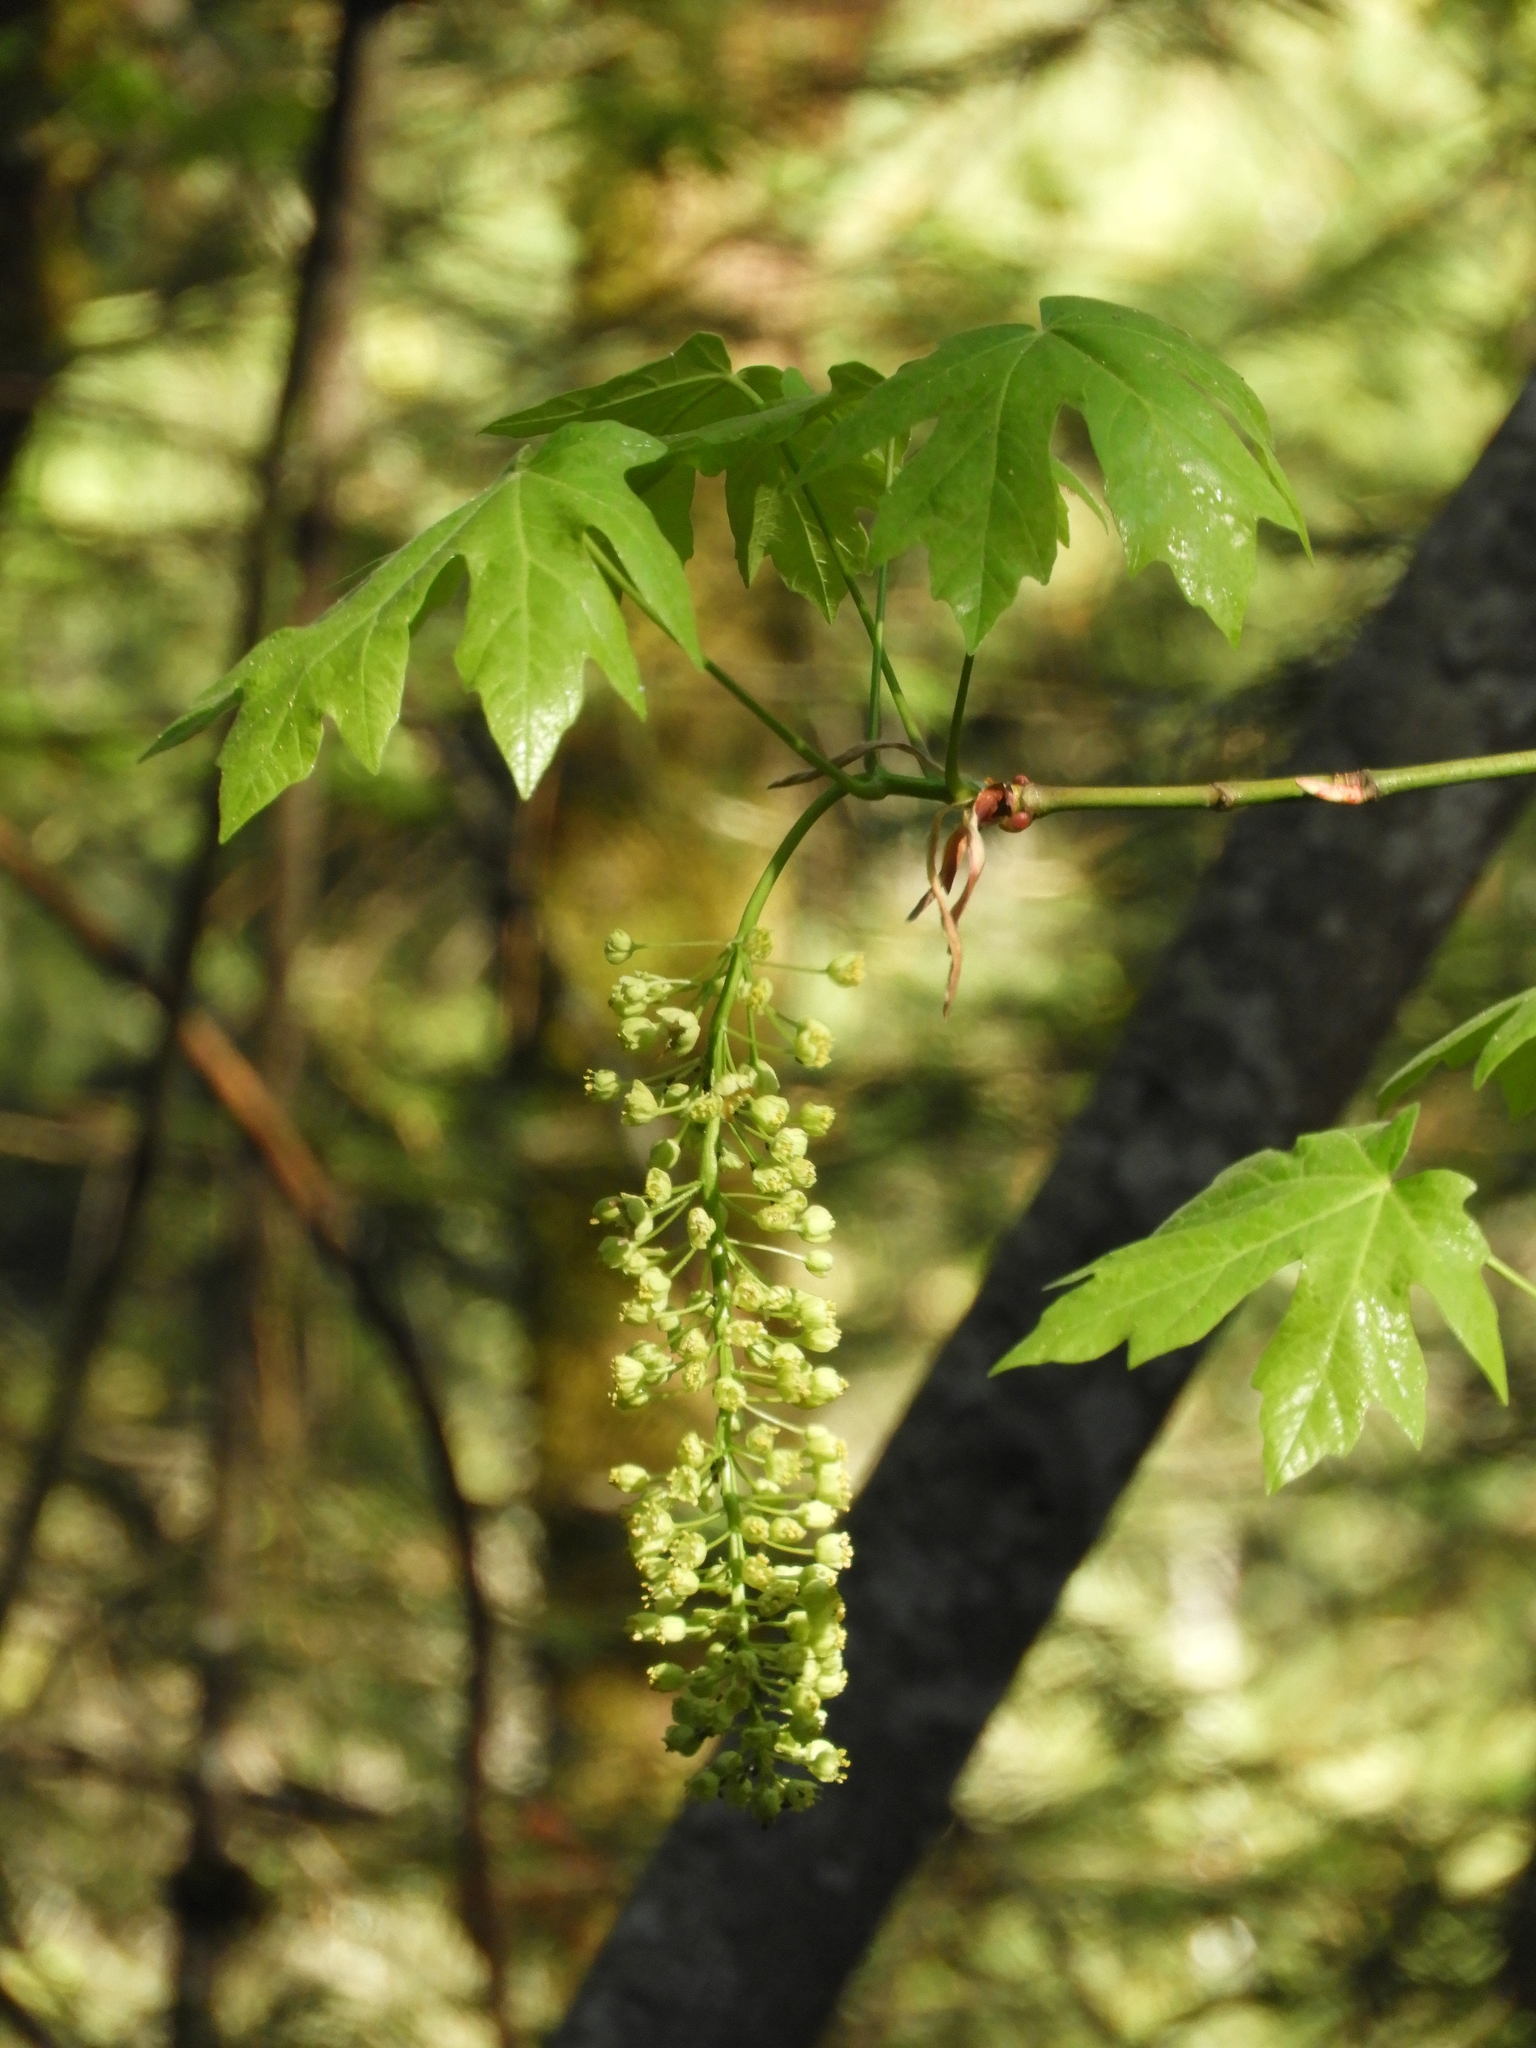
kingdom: Plantae
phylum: Tracheophyta
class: Magnoliopsida
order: Sapindales
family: Sapindaceae
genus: Acer
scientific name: Acer macrophyllum
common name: Oregon maple
